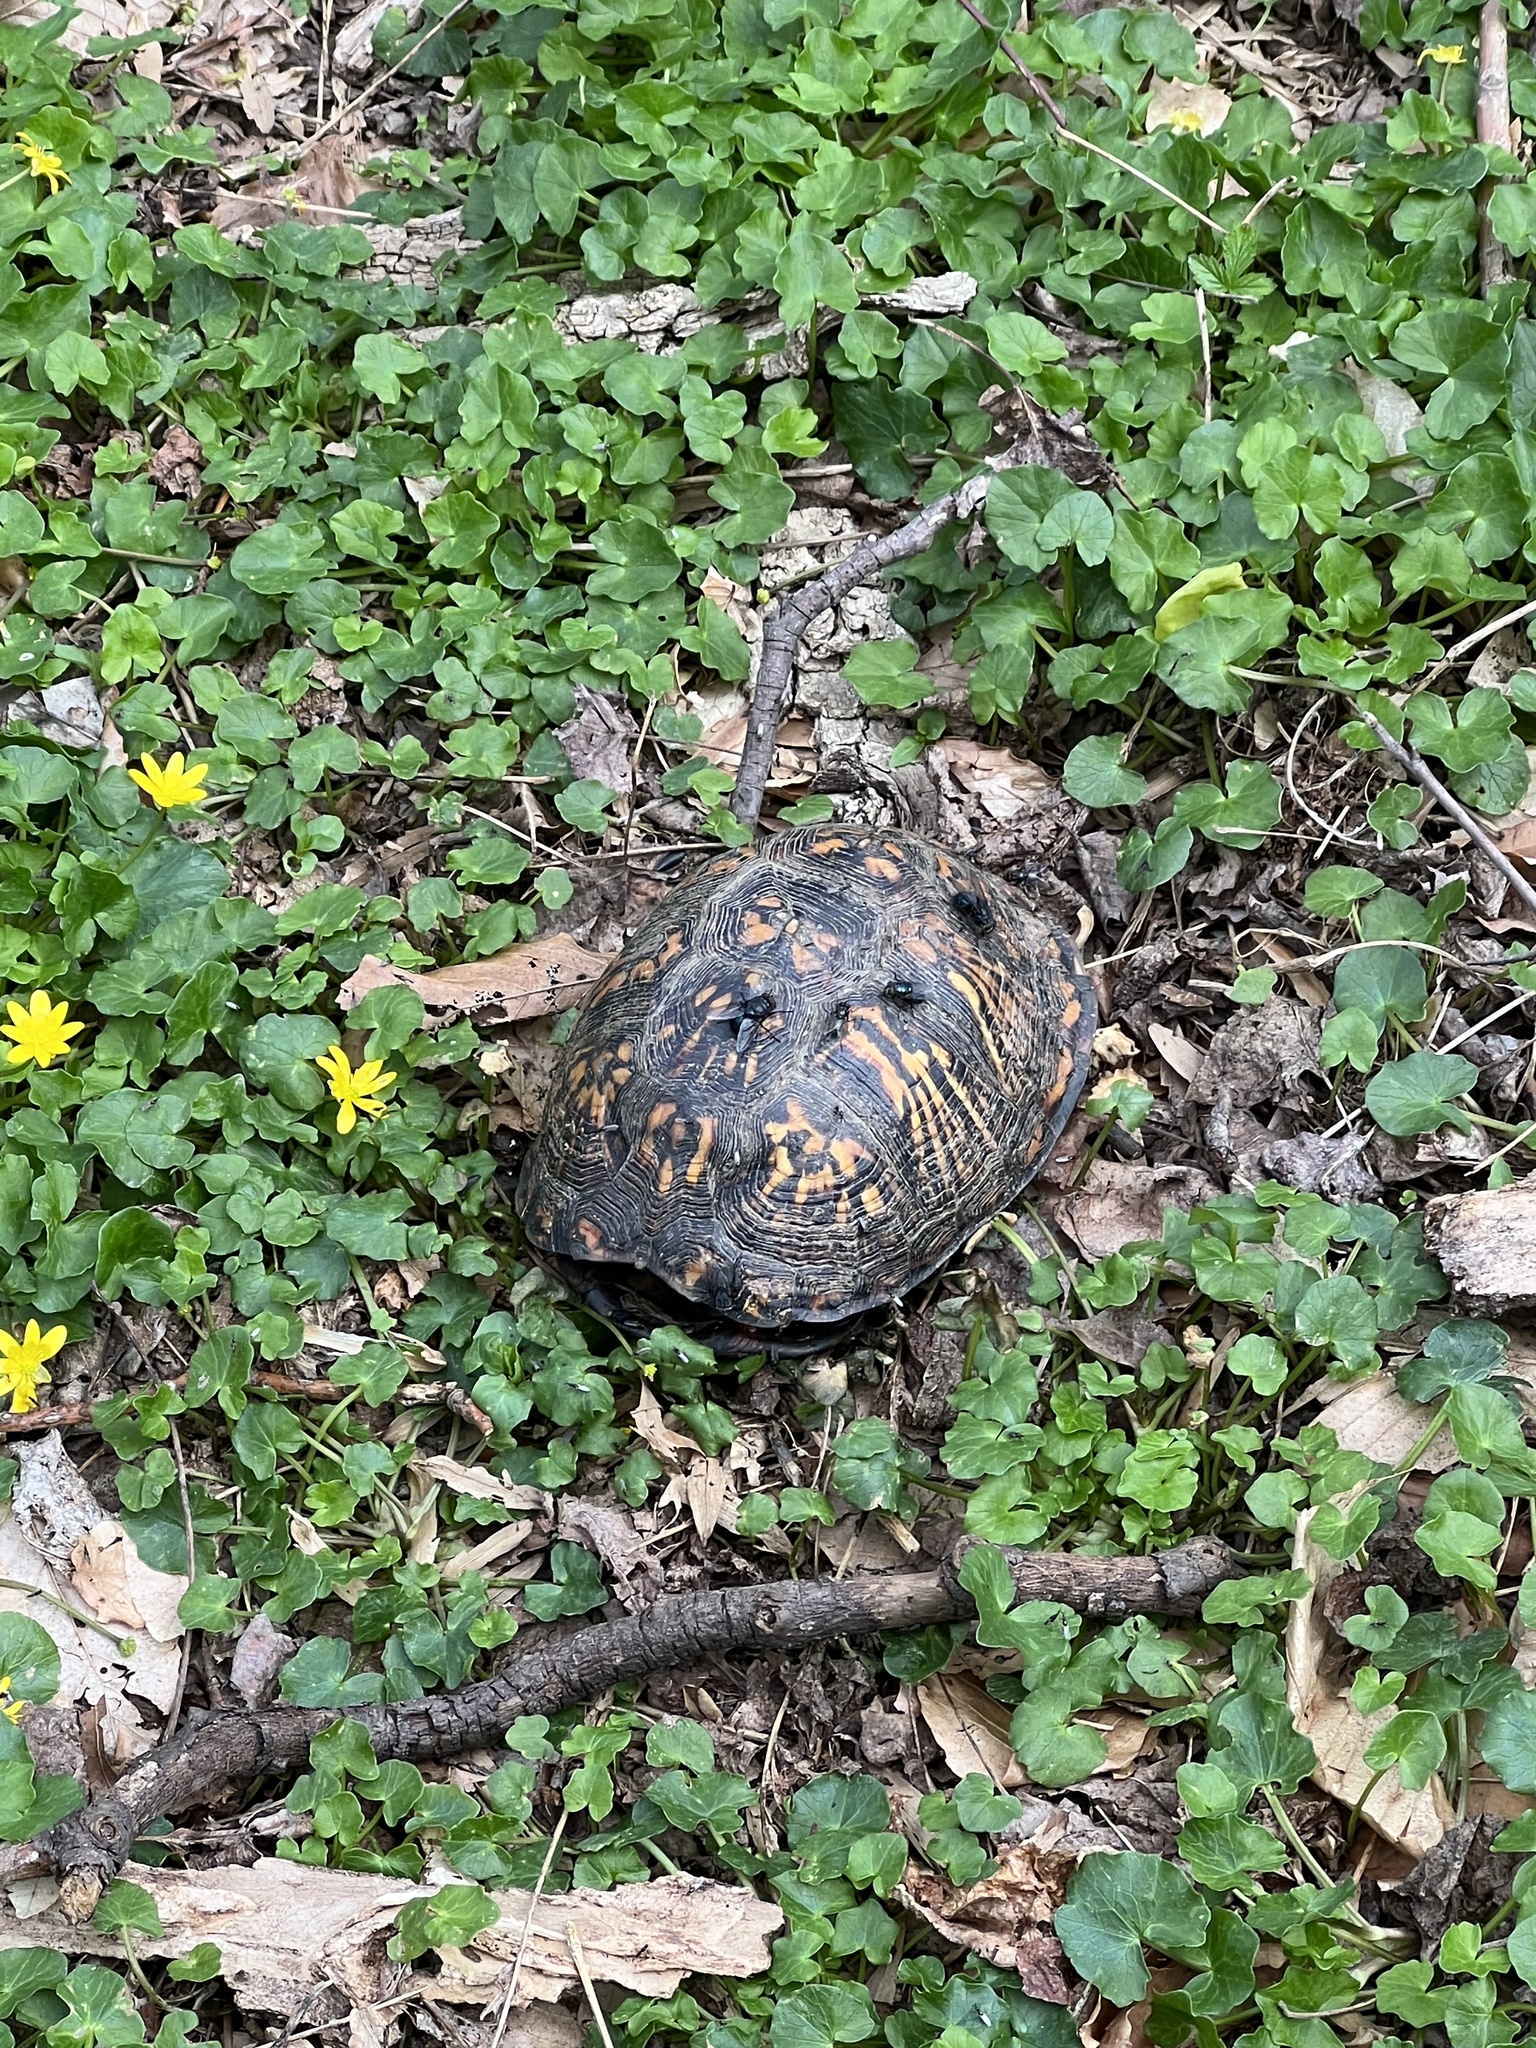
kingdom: Animalia
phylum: Chordata
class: Testudines
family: Emydidae
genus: Terrapene
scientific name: Terrapene carolina
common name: Common box turtle
